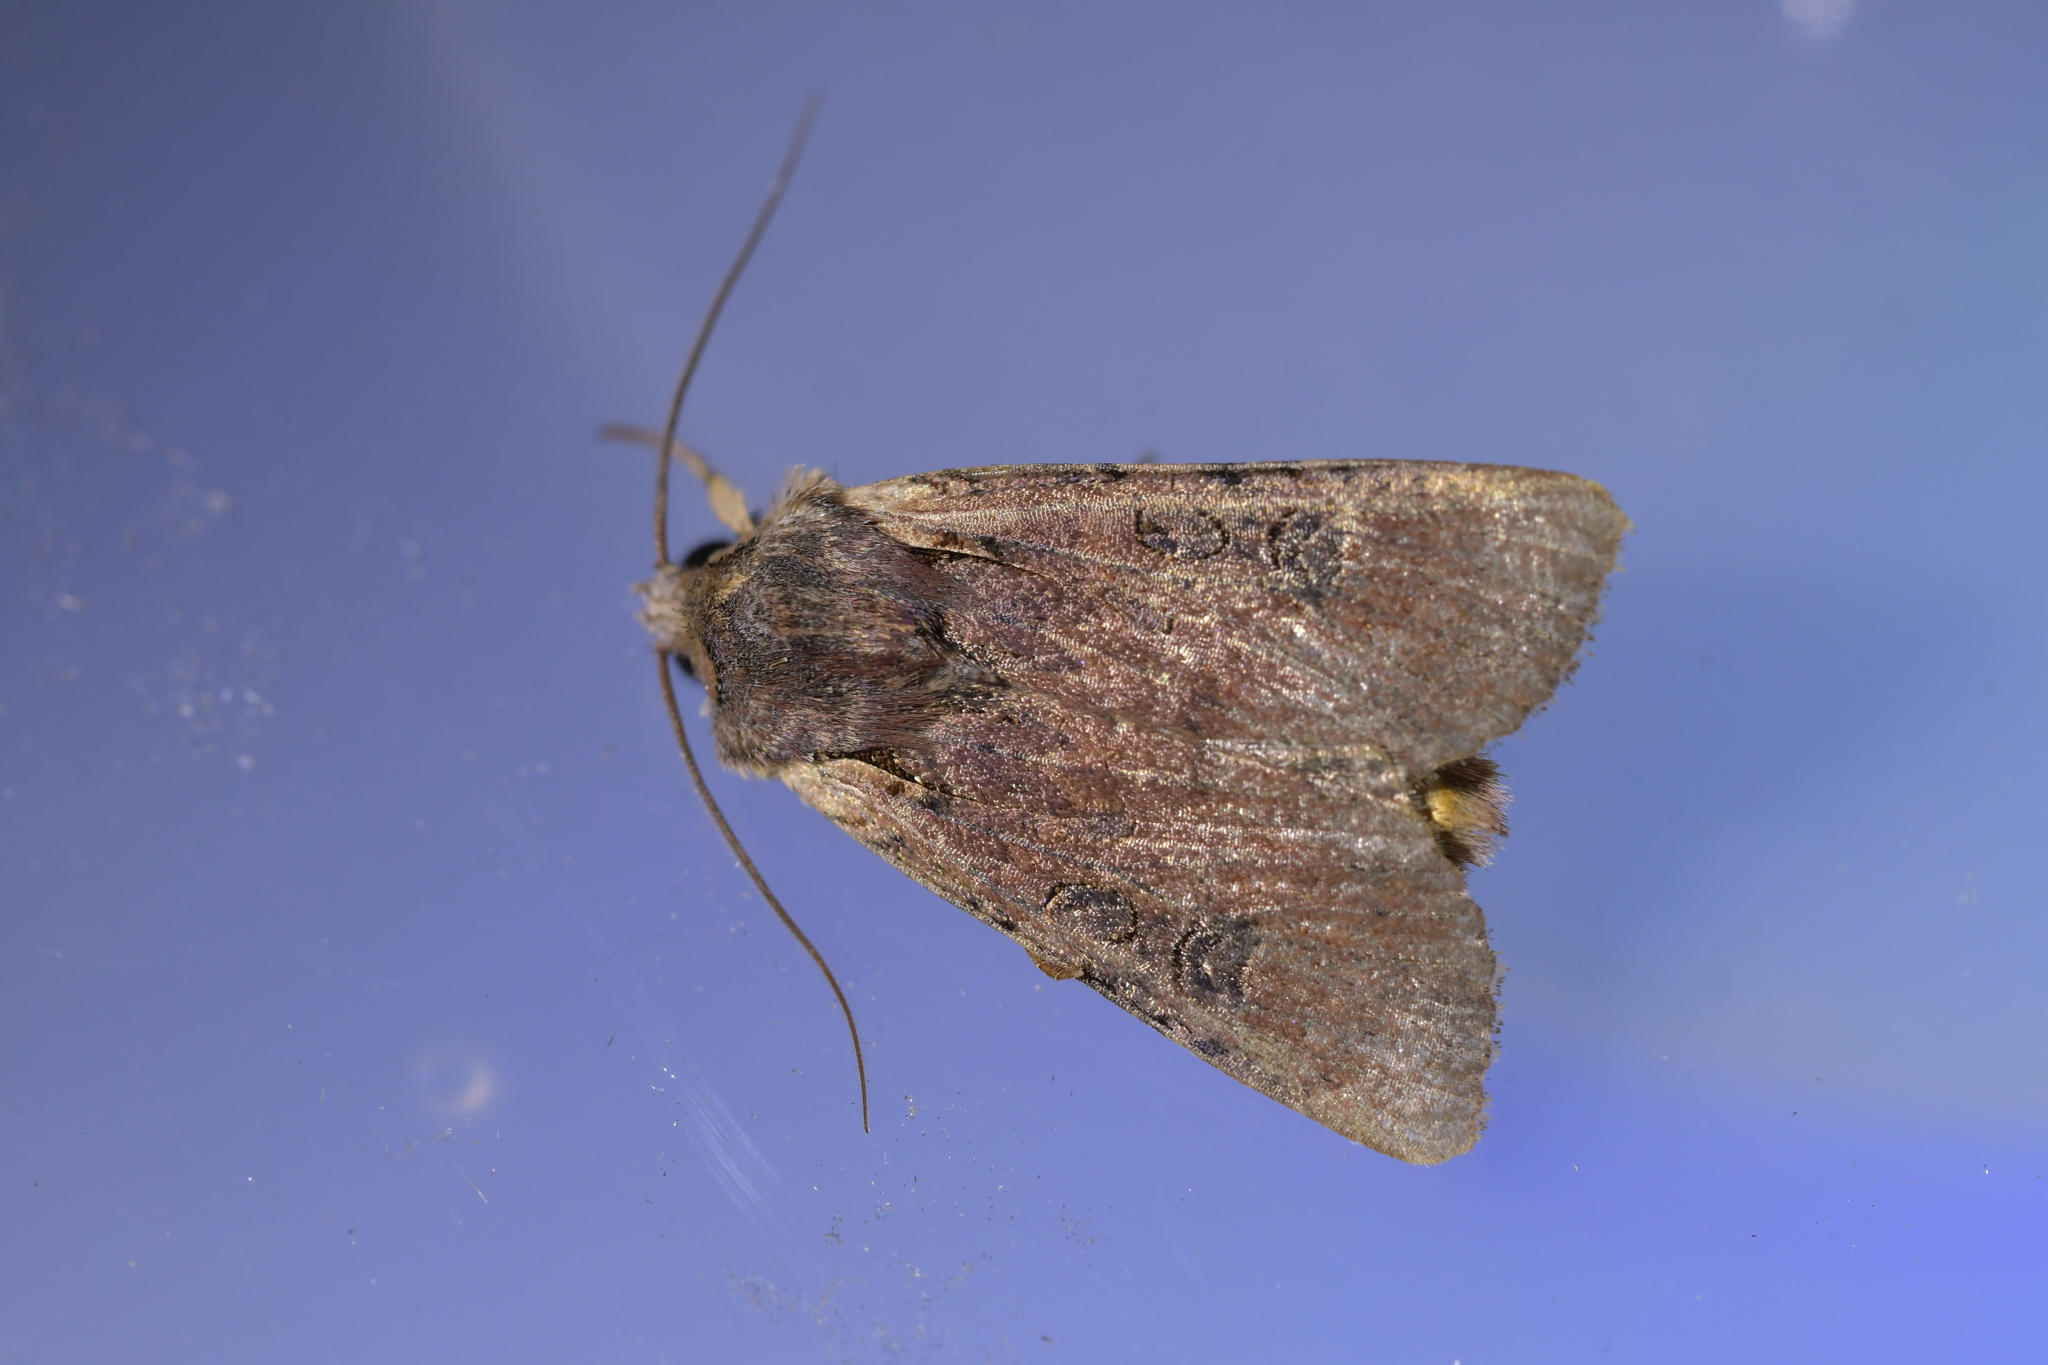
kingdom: Animalia
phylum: Arthropoda
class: Insecta
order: Lepidoptera
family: Noctuidae
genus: Ichneutica
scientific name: Ichneutica omoplaca
